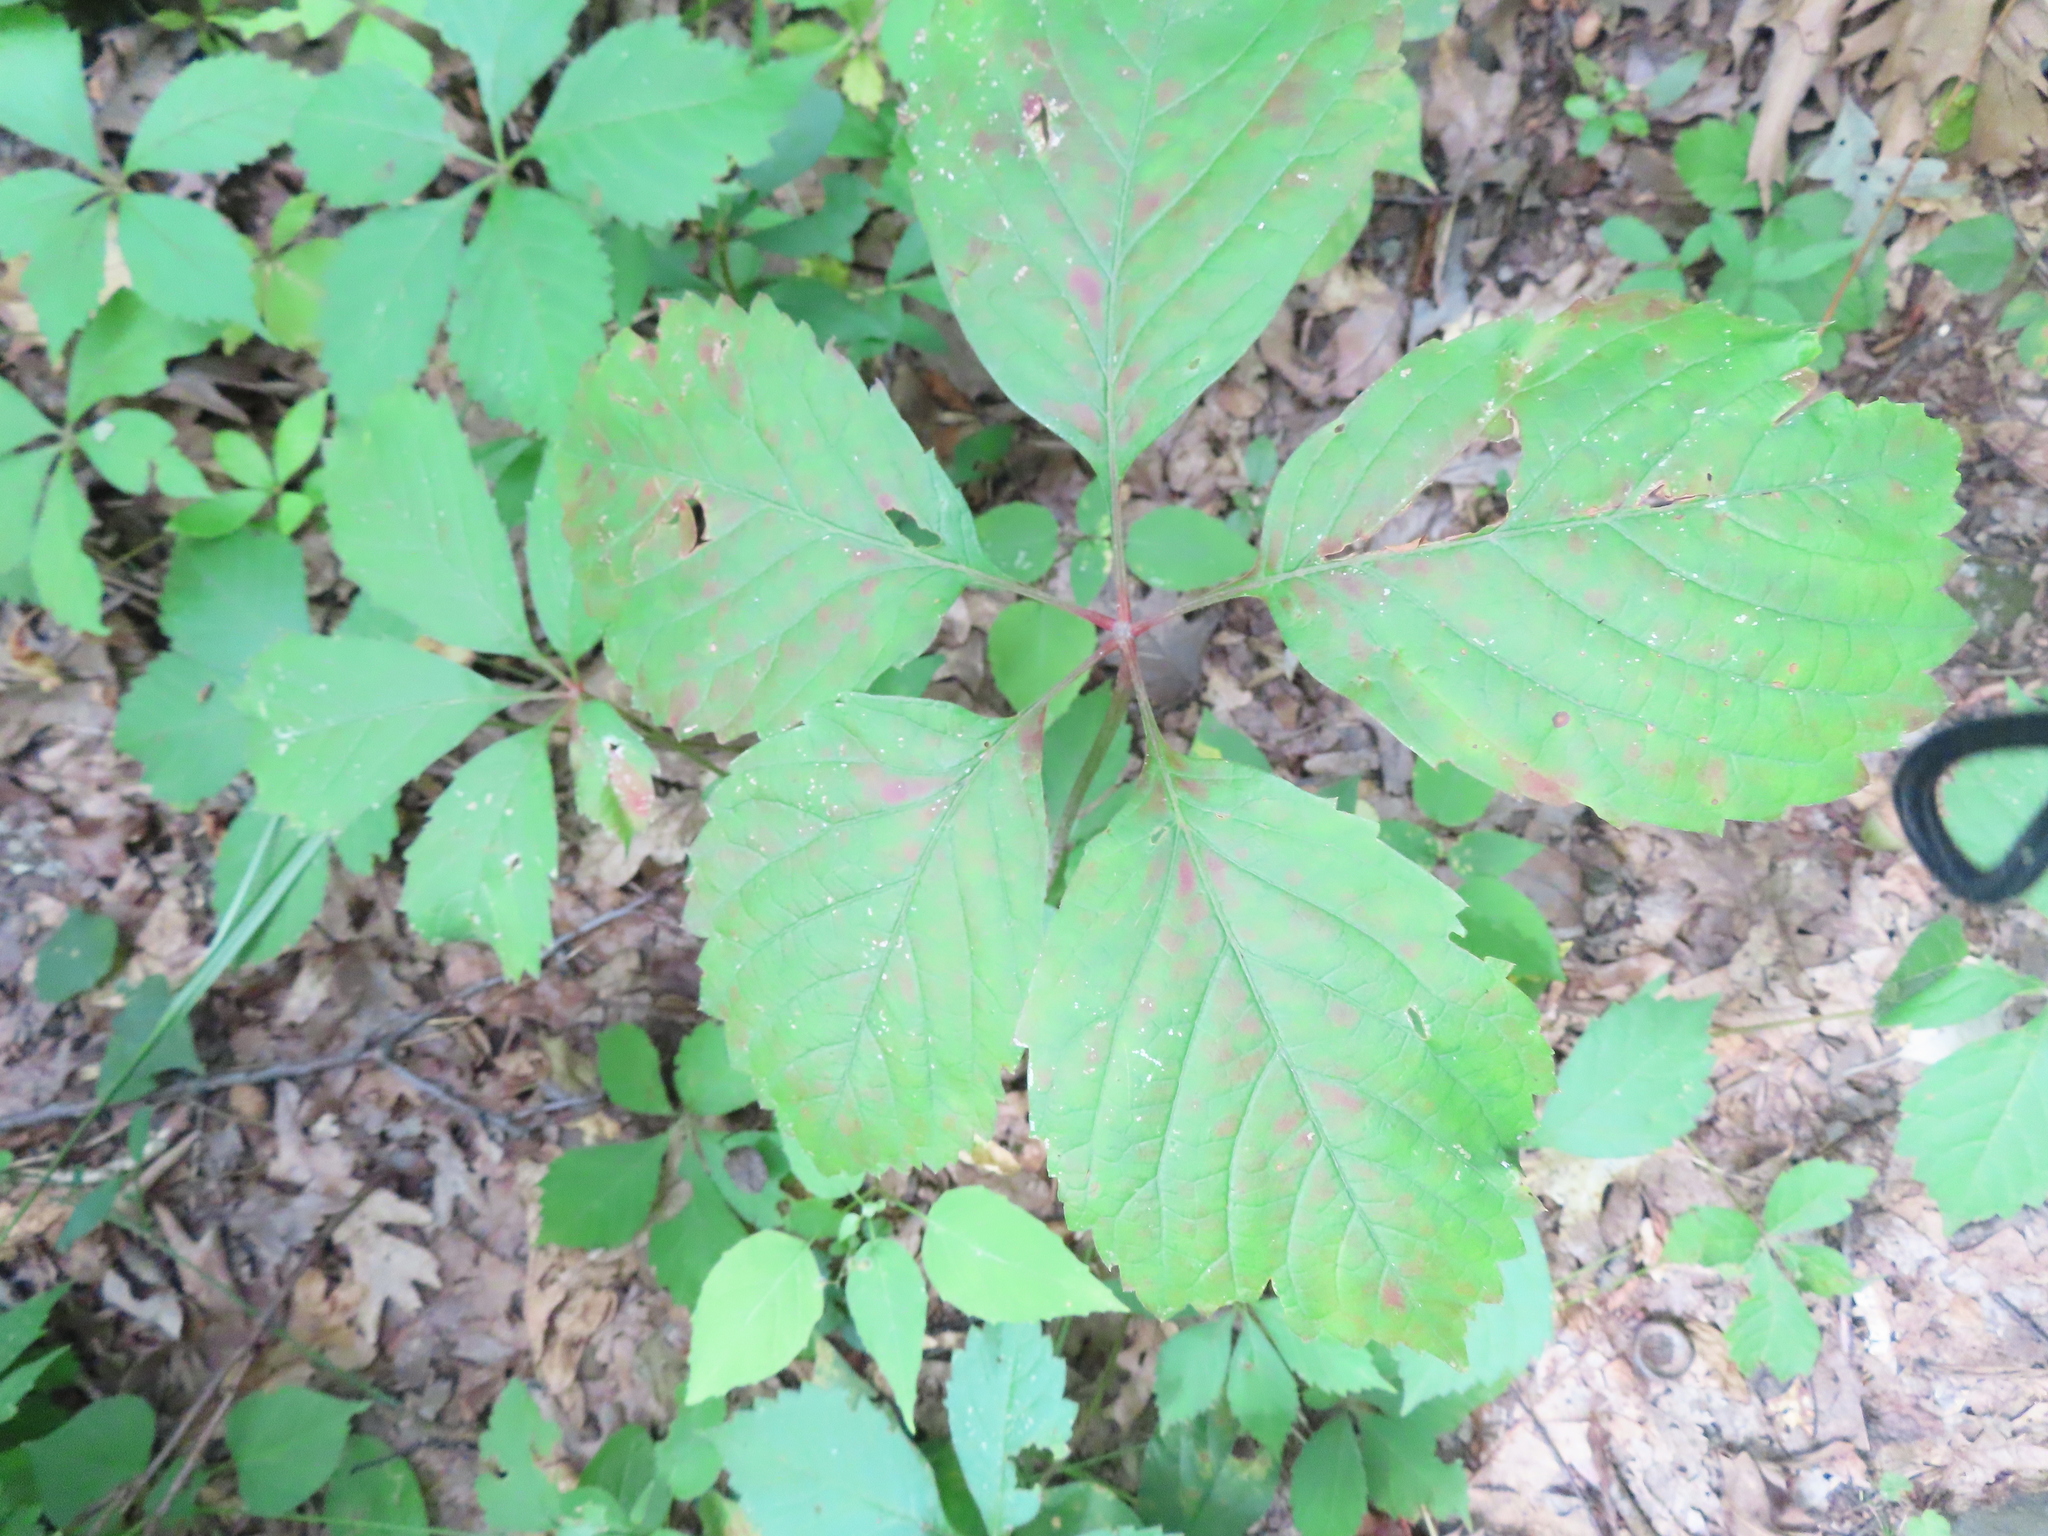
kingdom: Plantae
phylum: Tracheophyta
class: Magnoliopsida
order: Vitales
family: Vitaceae
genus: Parthenocissus
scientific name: Parthenocissus inserta
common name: False virginia-creeper
